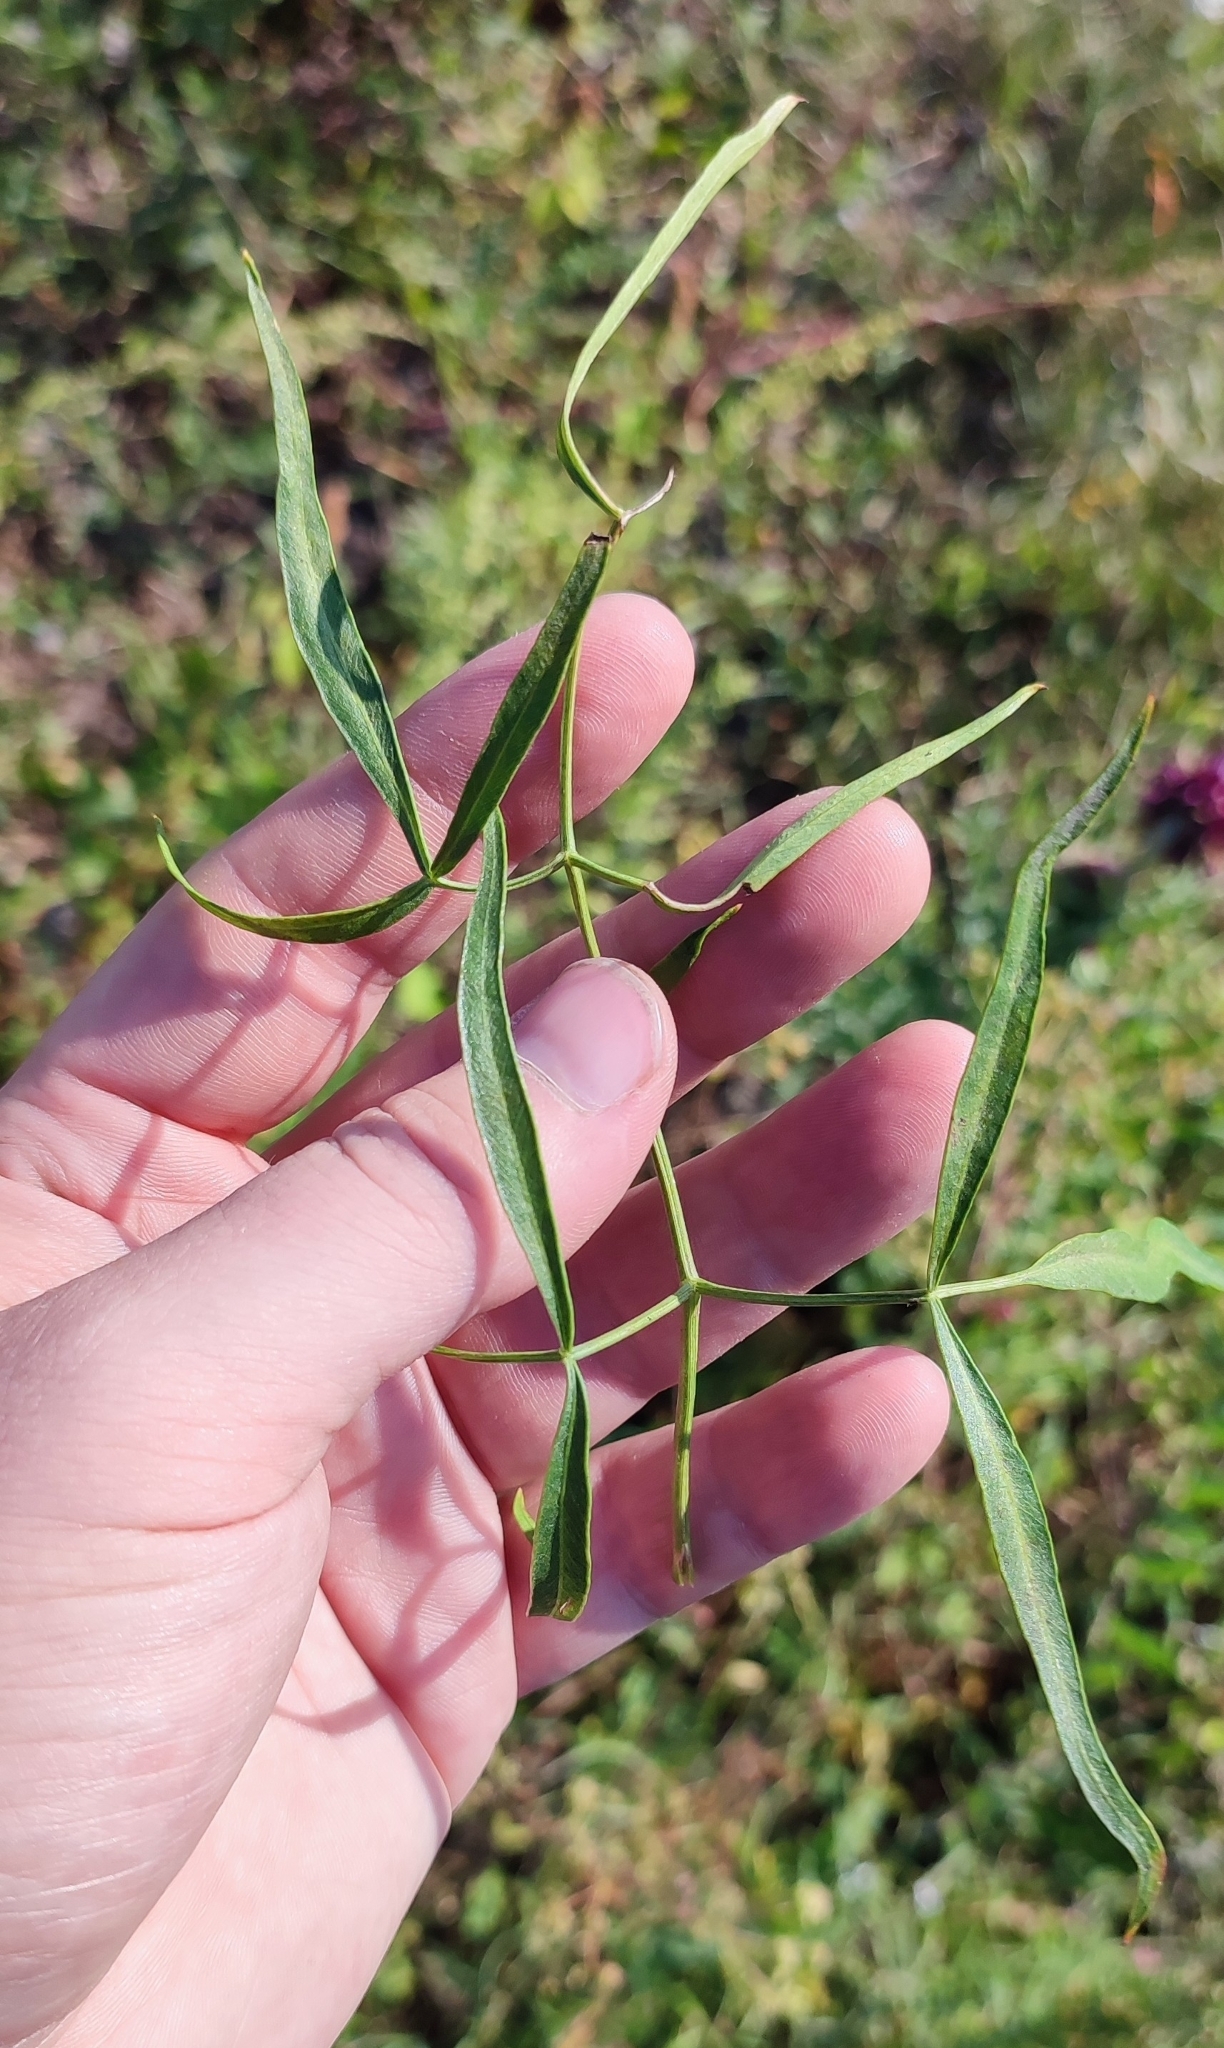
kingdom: Plantae
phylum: Tracheophyta
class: Magnoliopsida
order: Apiales
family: Apiaceae
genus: Cenolophium
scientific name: Cenolophium fischeri
